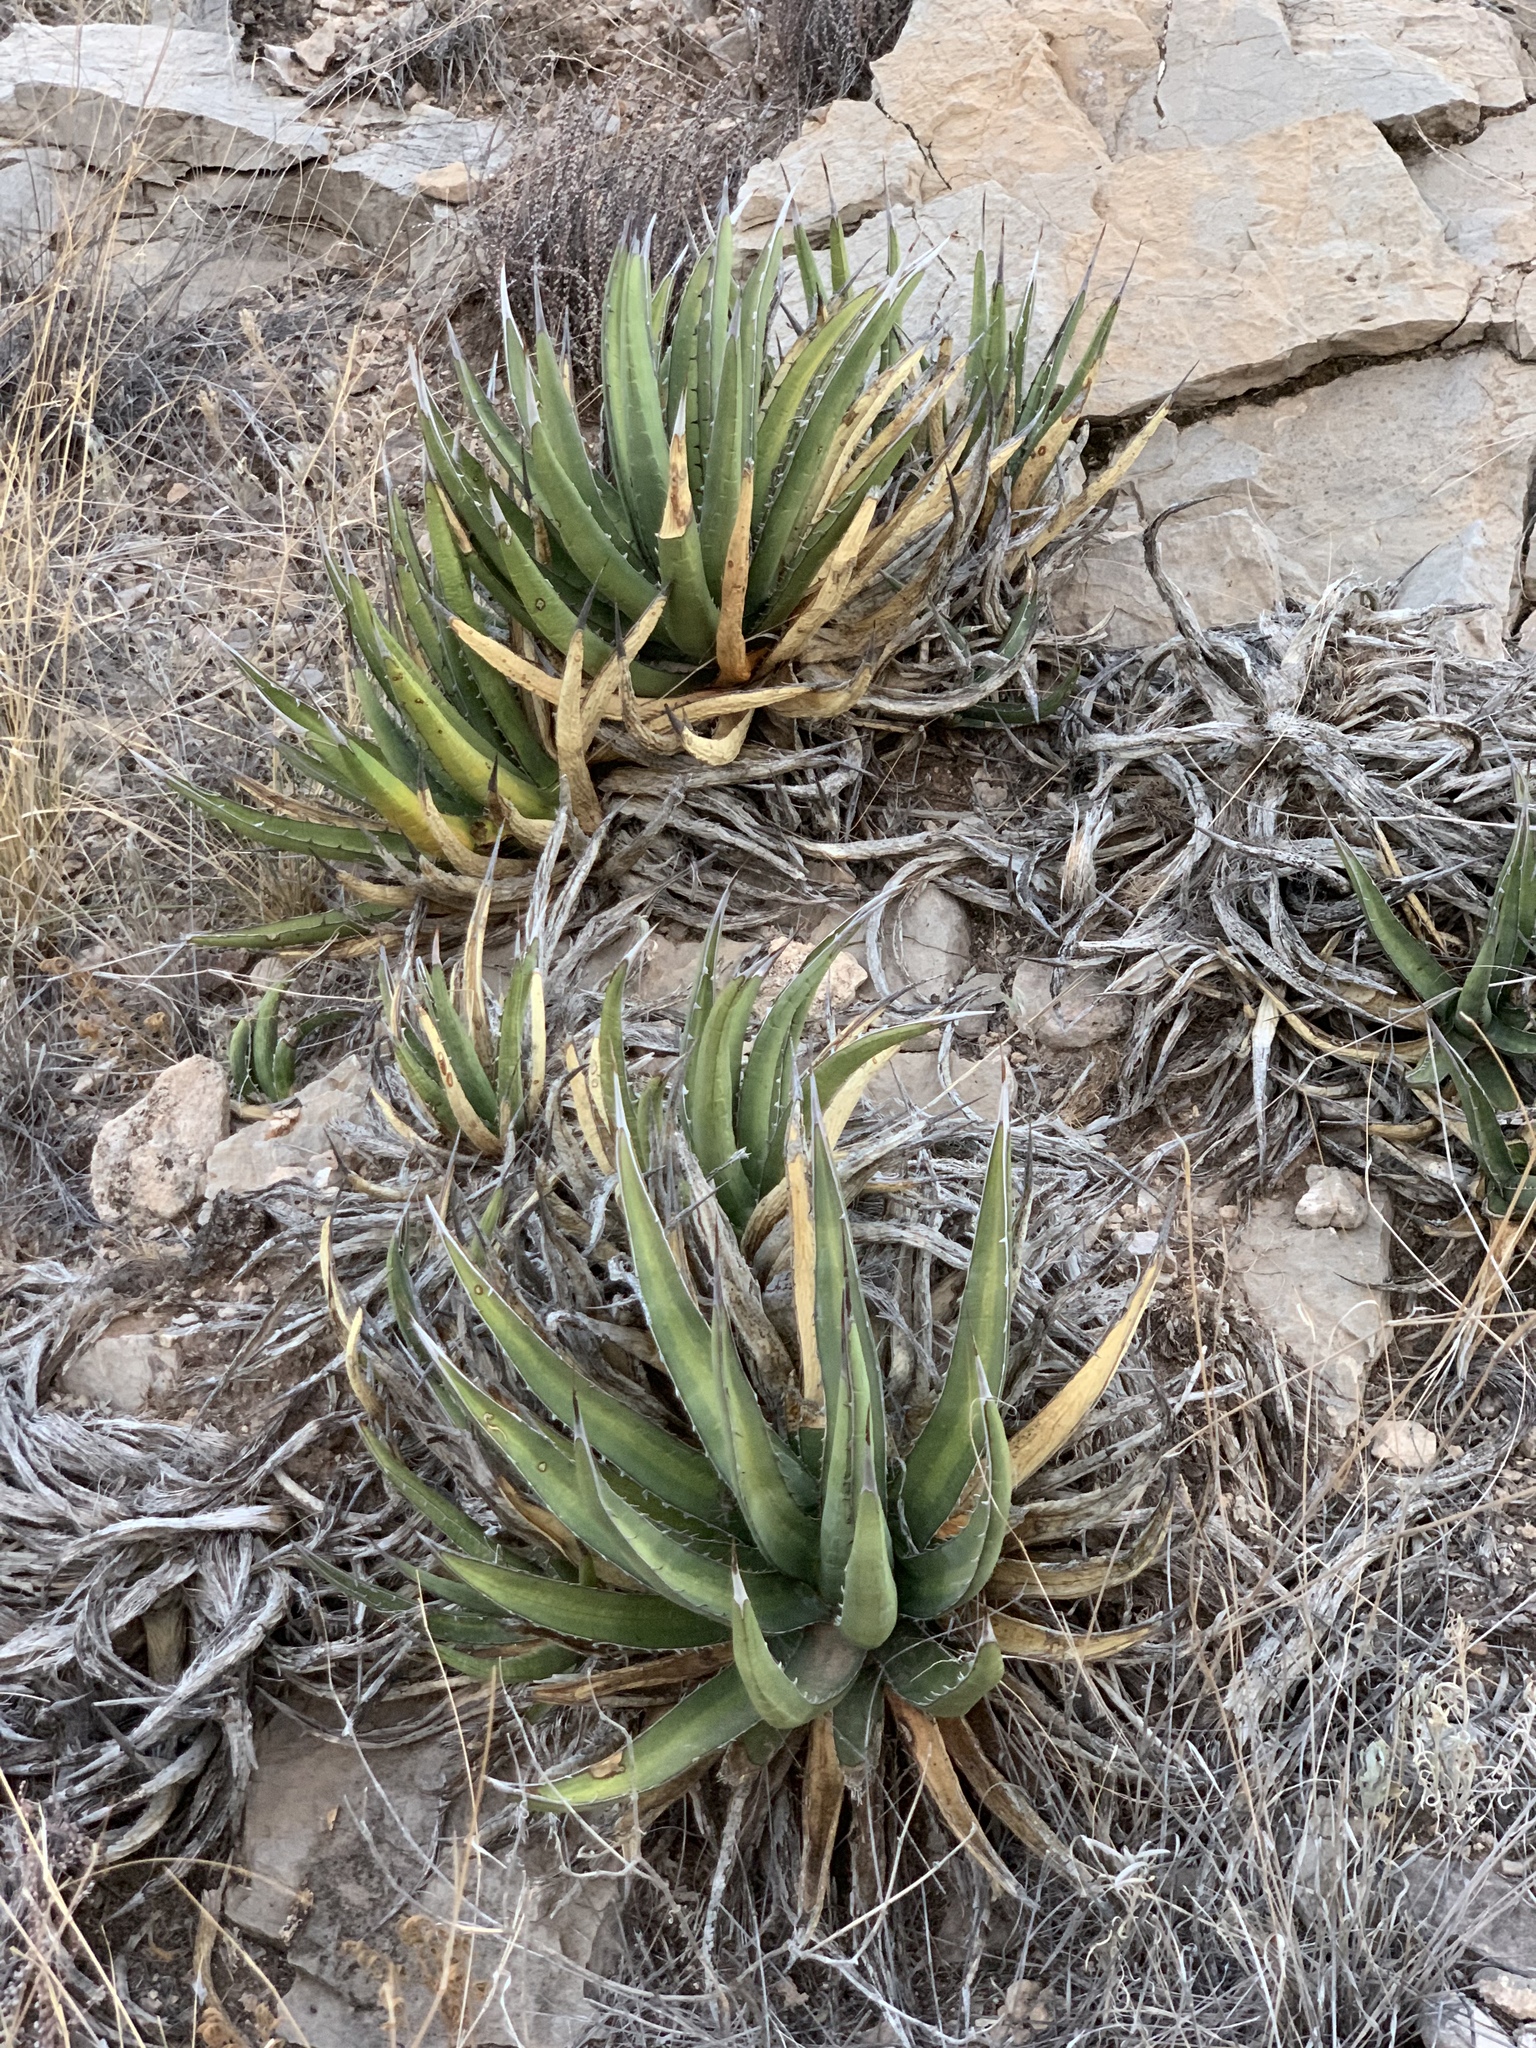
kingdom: Plantae
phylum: Tracheophyta
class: Liliopsida
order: Asparagales
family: Asparagaceae
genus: Agave
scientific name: Agave lechuguilla
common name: Lecheguilla agave
